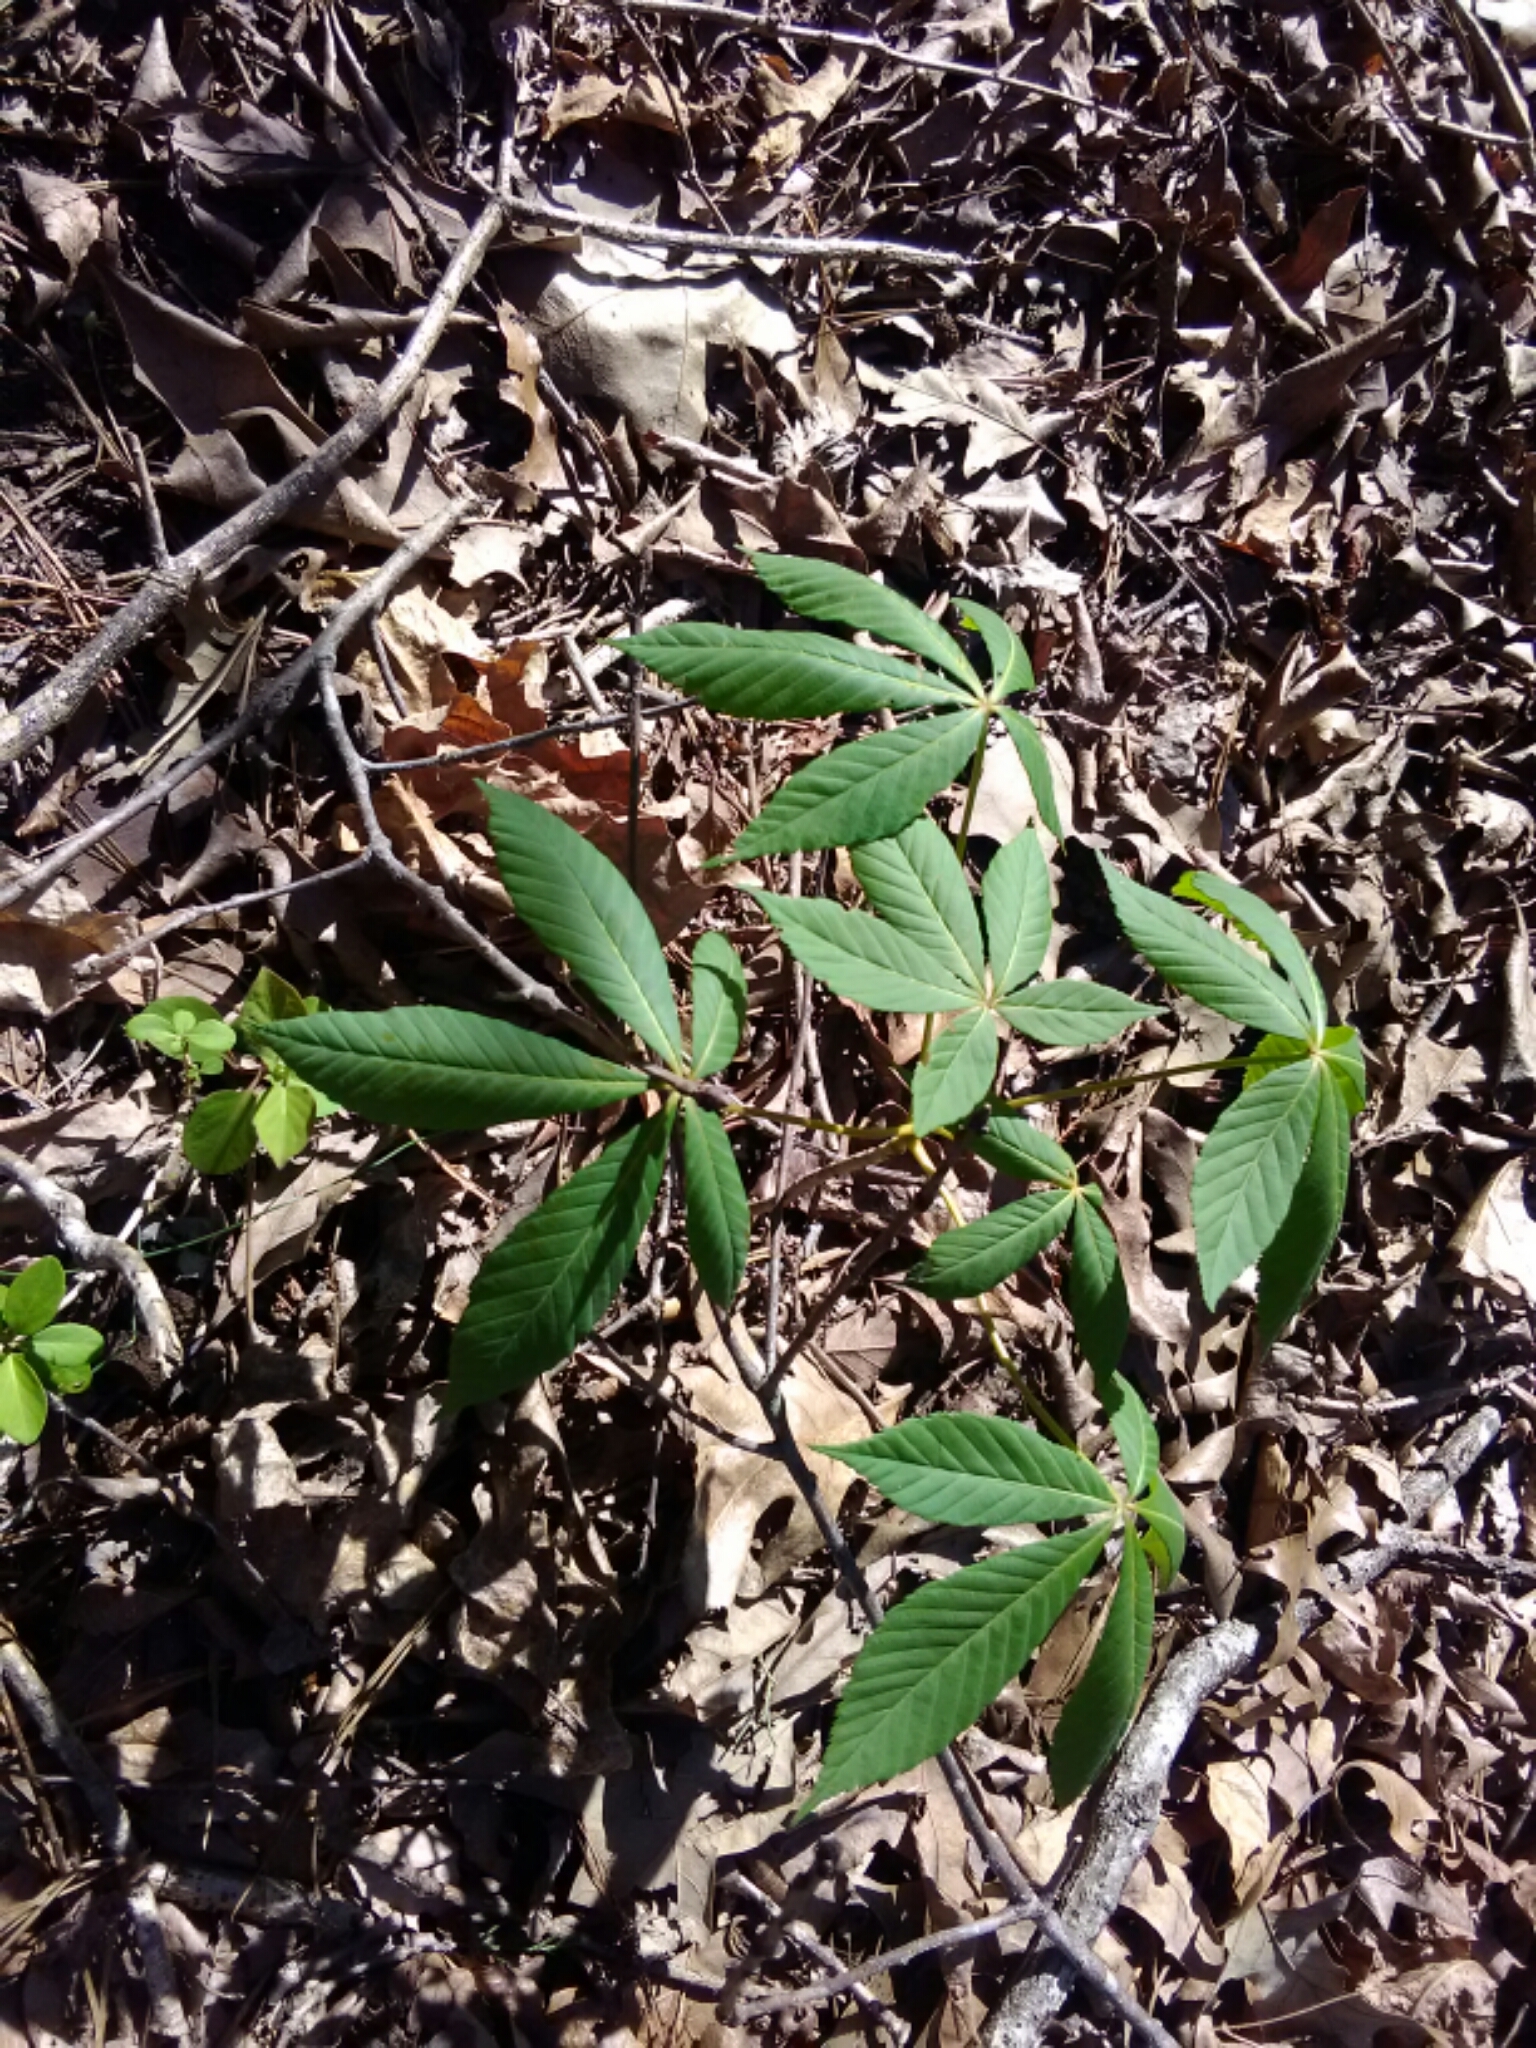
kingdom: Plantae
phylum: Tracheophyta
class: Magnoliopsida
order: Sapindales
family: Sapindaceae
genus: Aesculus
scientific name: Aesculus sylvatica
